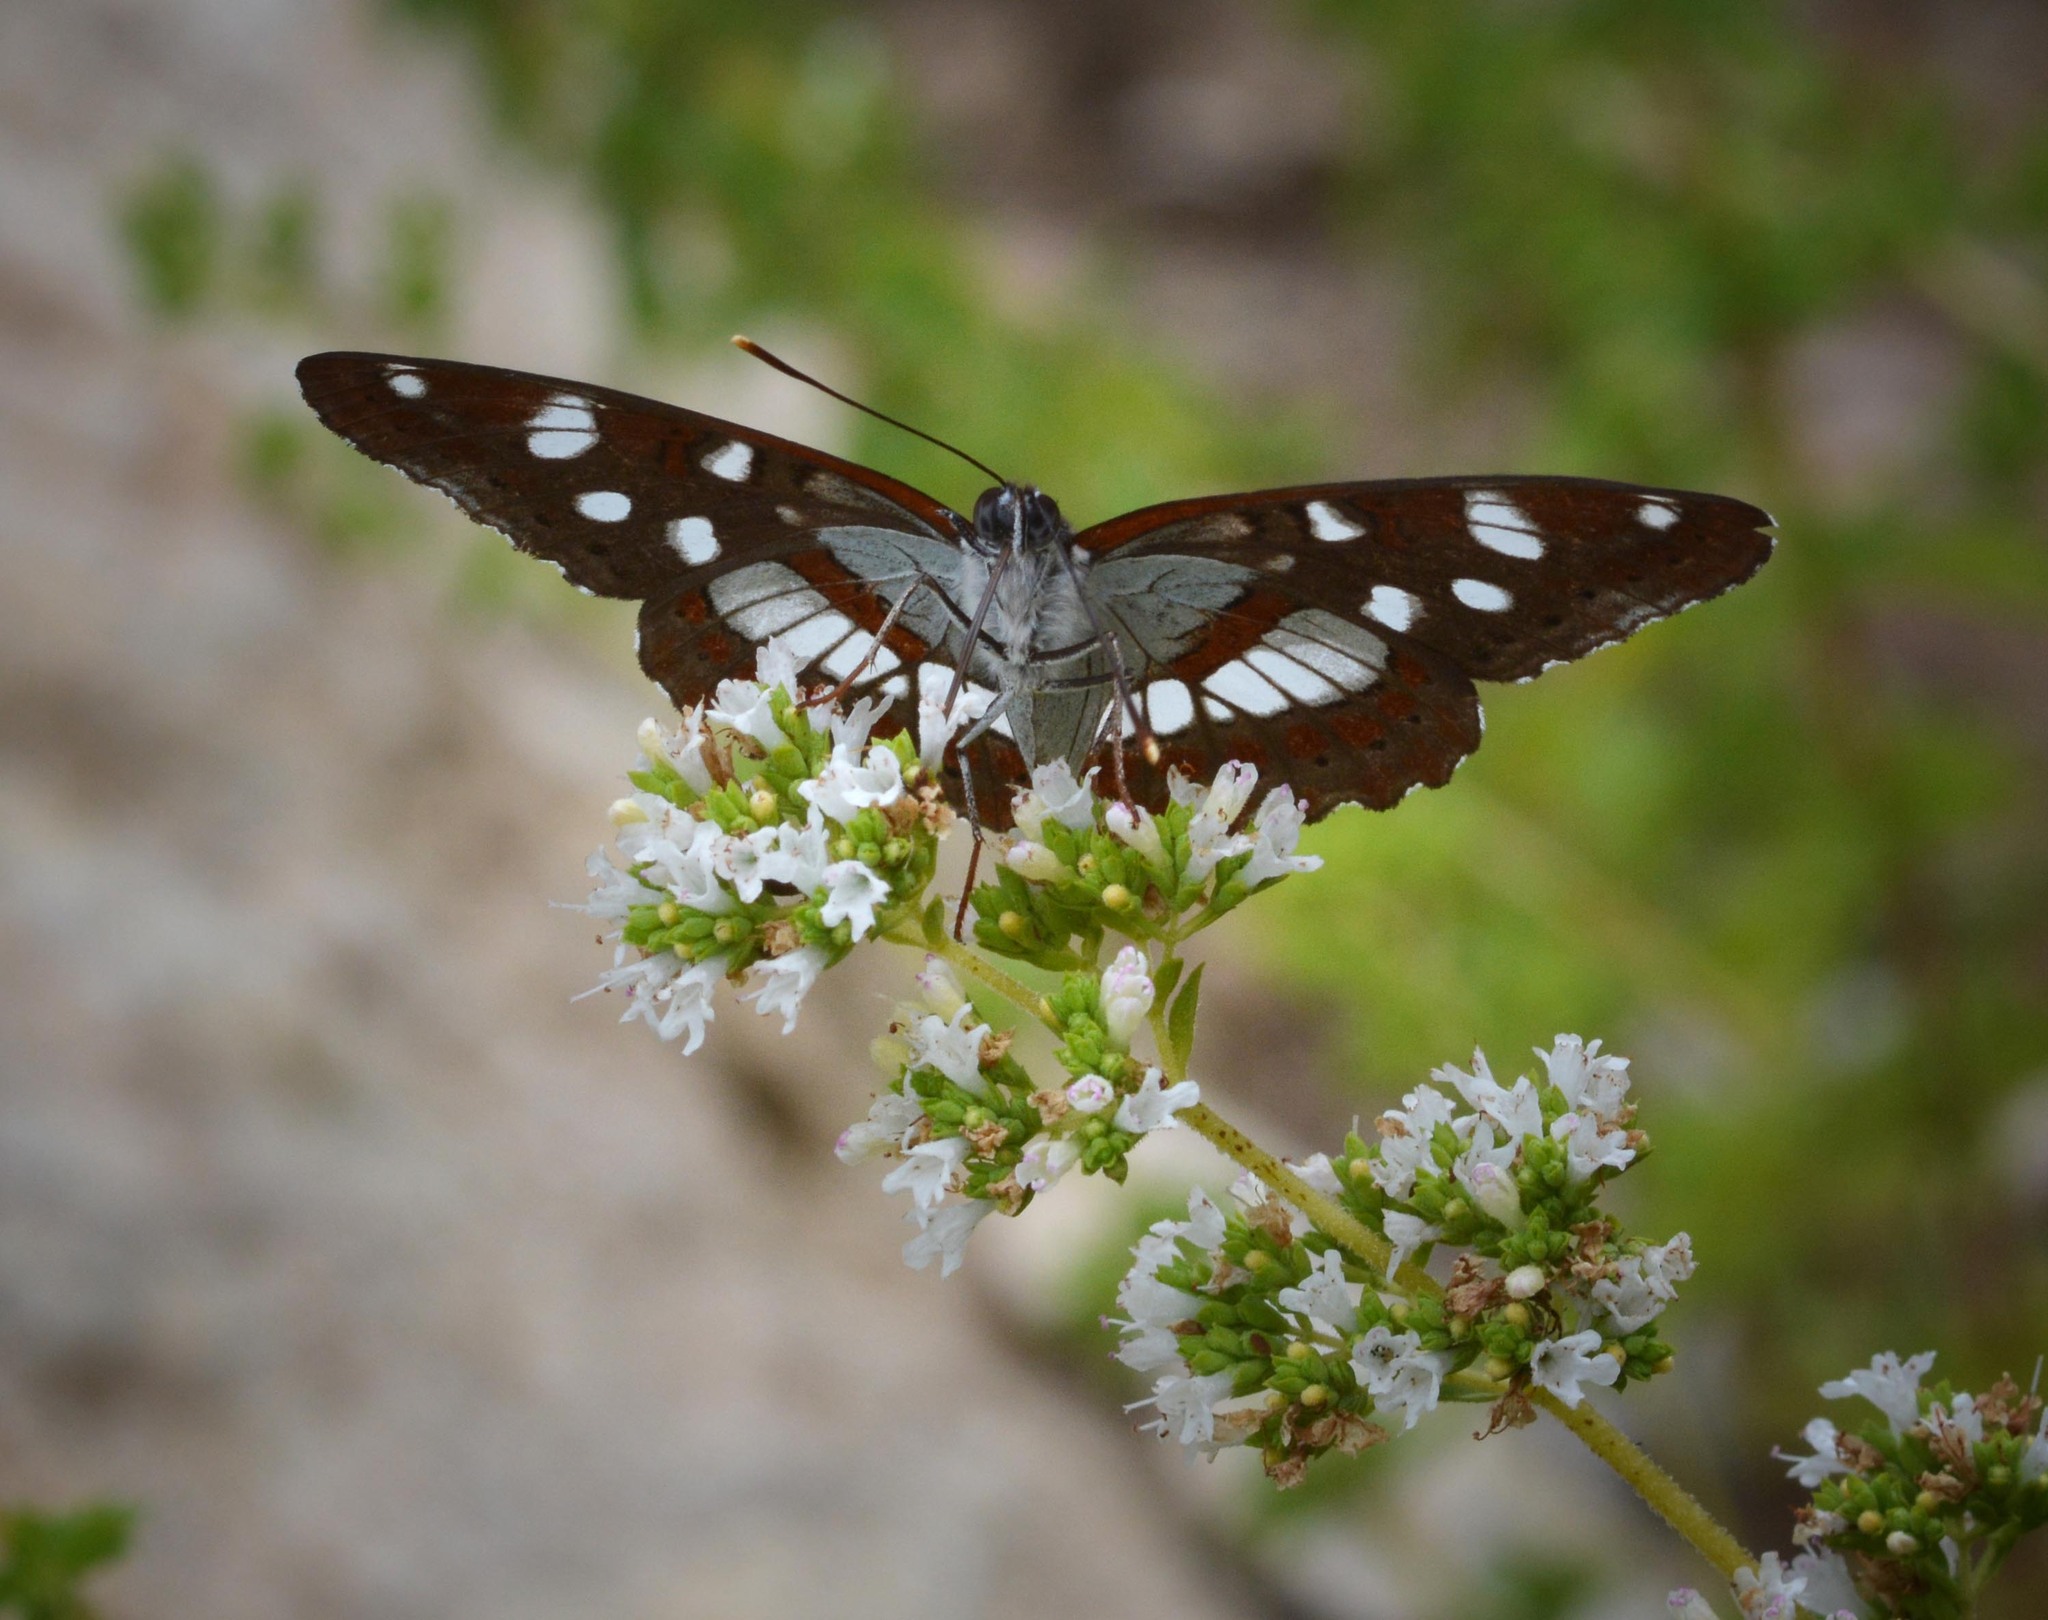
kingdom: Animalia
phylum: Arthropoda
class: Insecta
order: Lepidoptera
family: Nymphalidae
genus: Limenitis
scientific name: Limenitis reducta
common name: Southern white admiral
